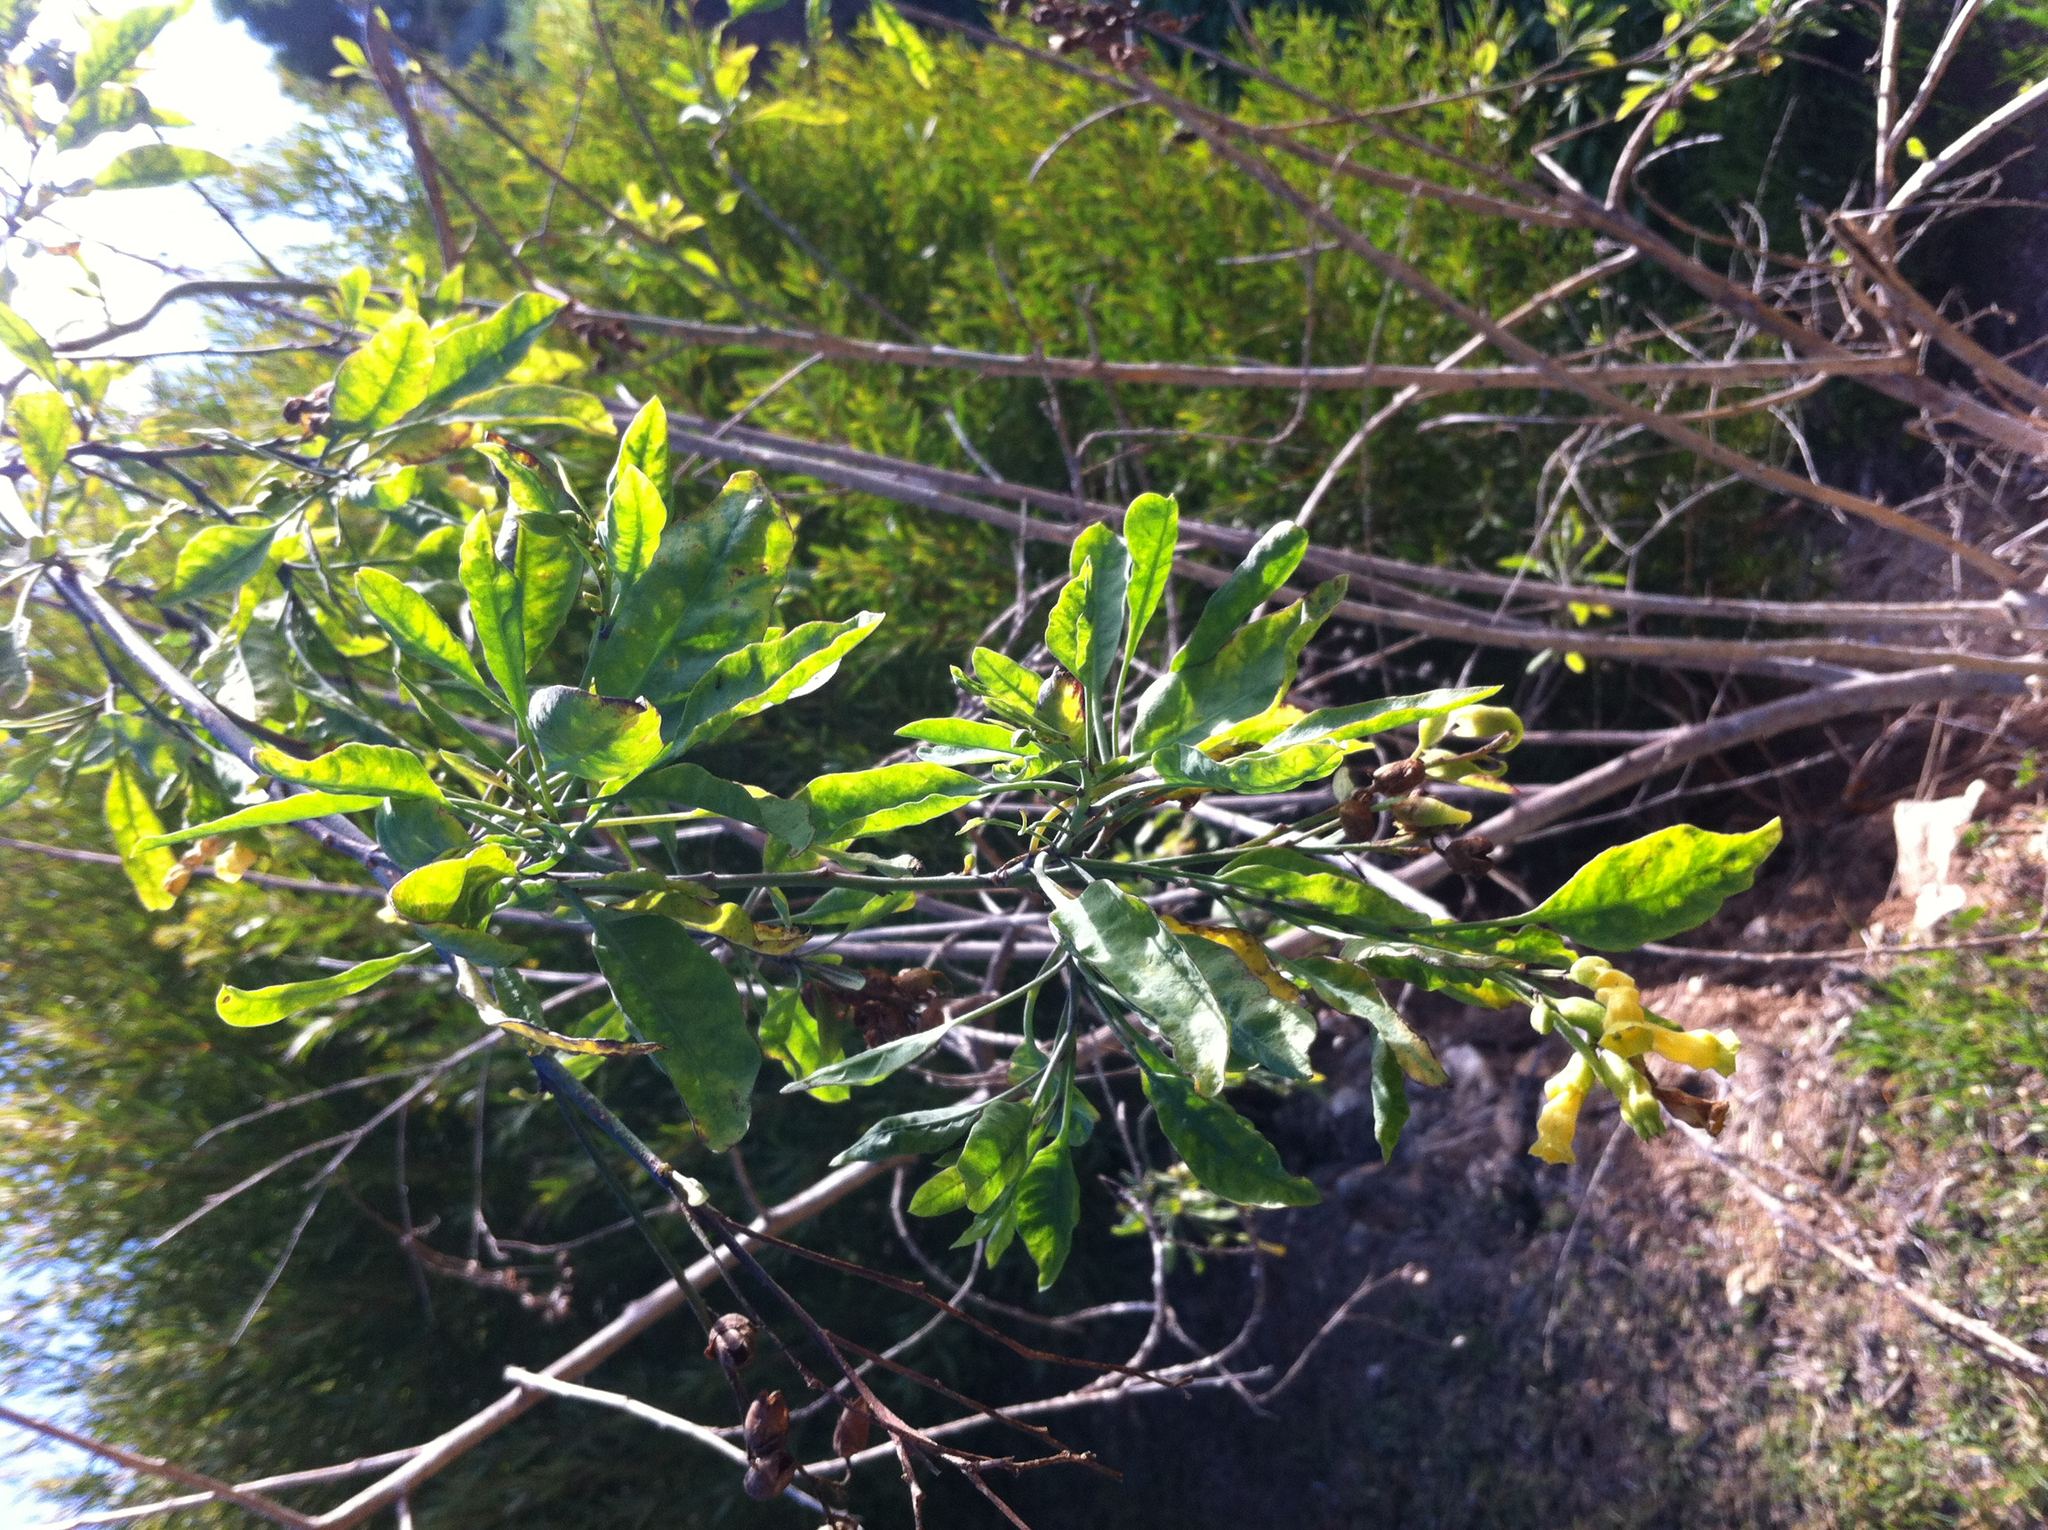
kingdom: Plantae
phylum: Tracheophyta
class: Magnoliopsida
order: Solanales
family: Solanaceae
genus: Nicotiana
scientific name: Nicotiana glauca
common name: Tree tobacco
